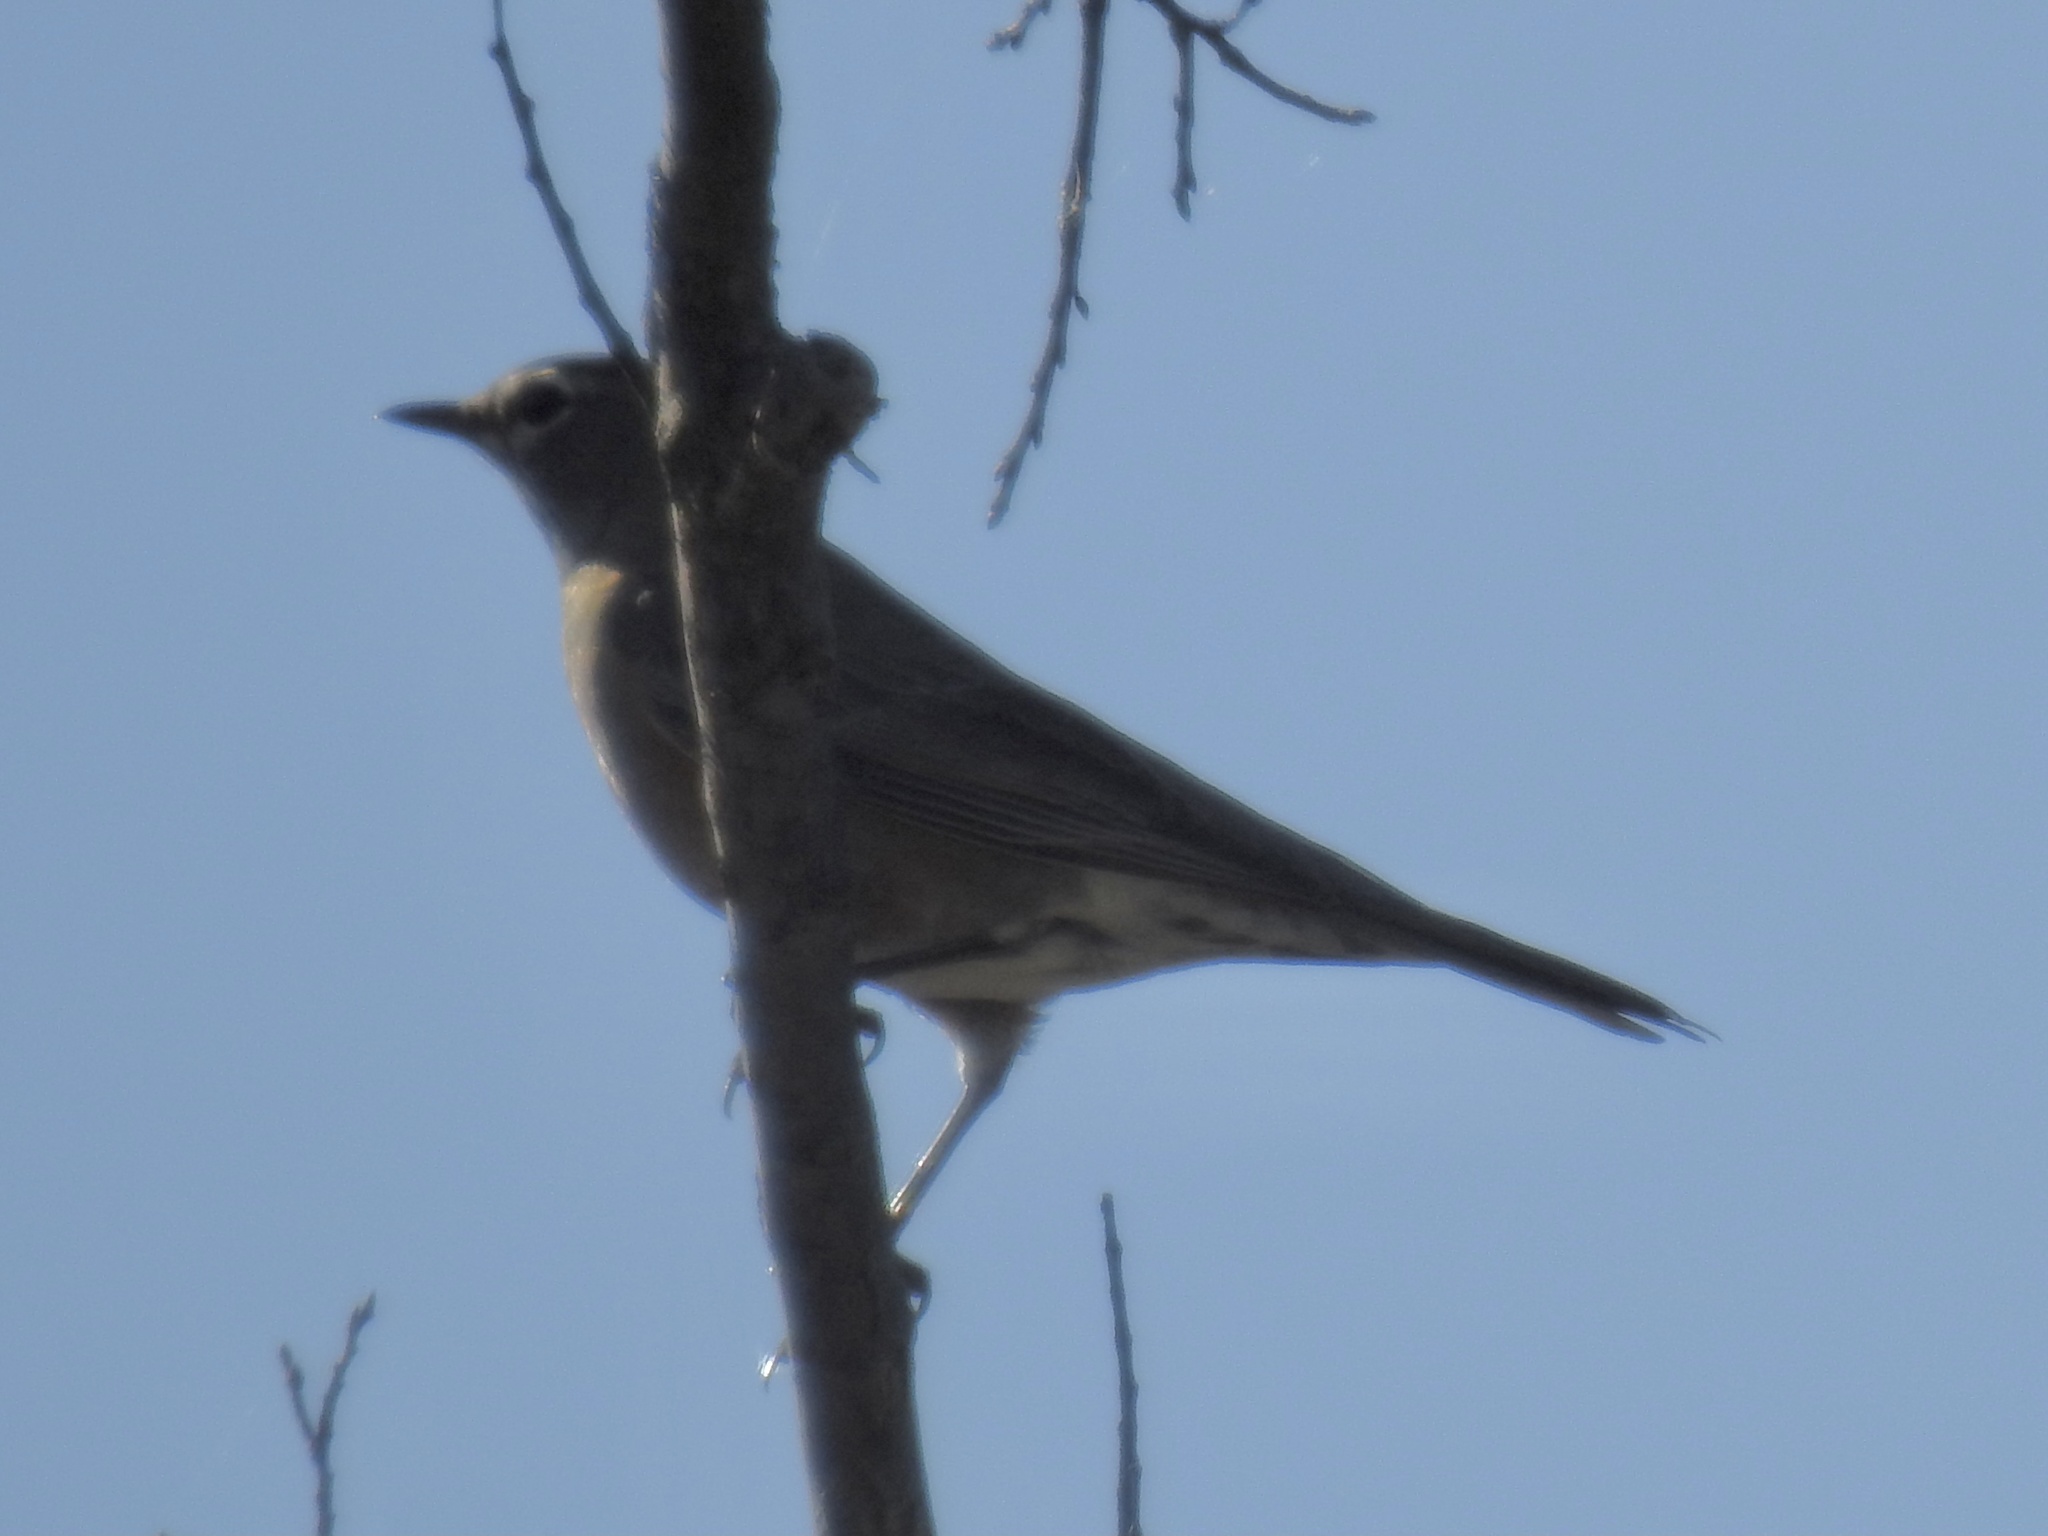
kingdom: Animalia
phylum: Chordata
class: Aves
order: Passeriformes
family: Turdidae
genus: Turdus
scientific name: Turdus migratorius
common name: American robin
